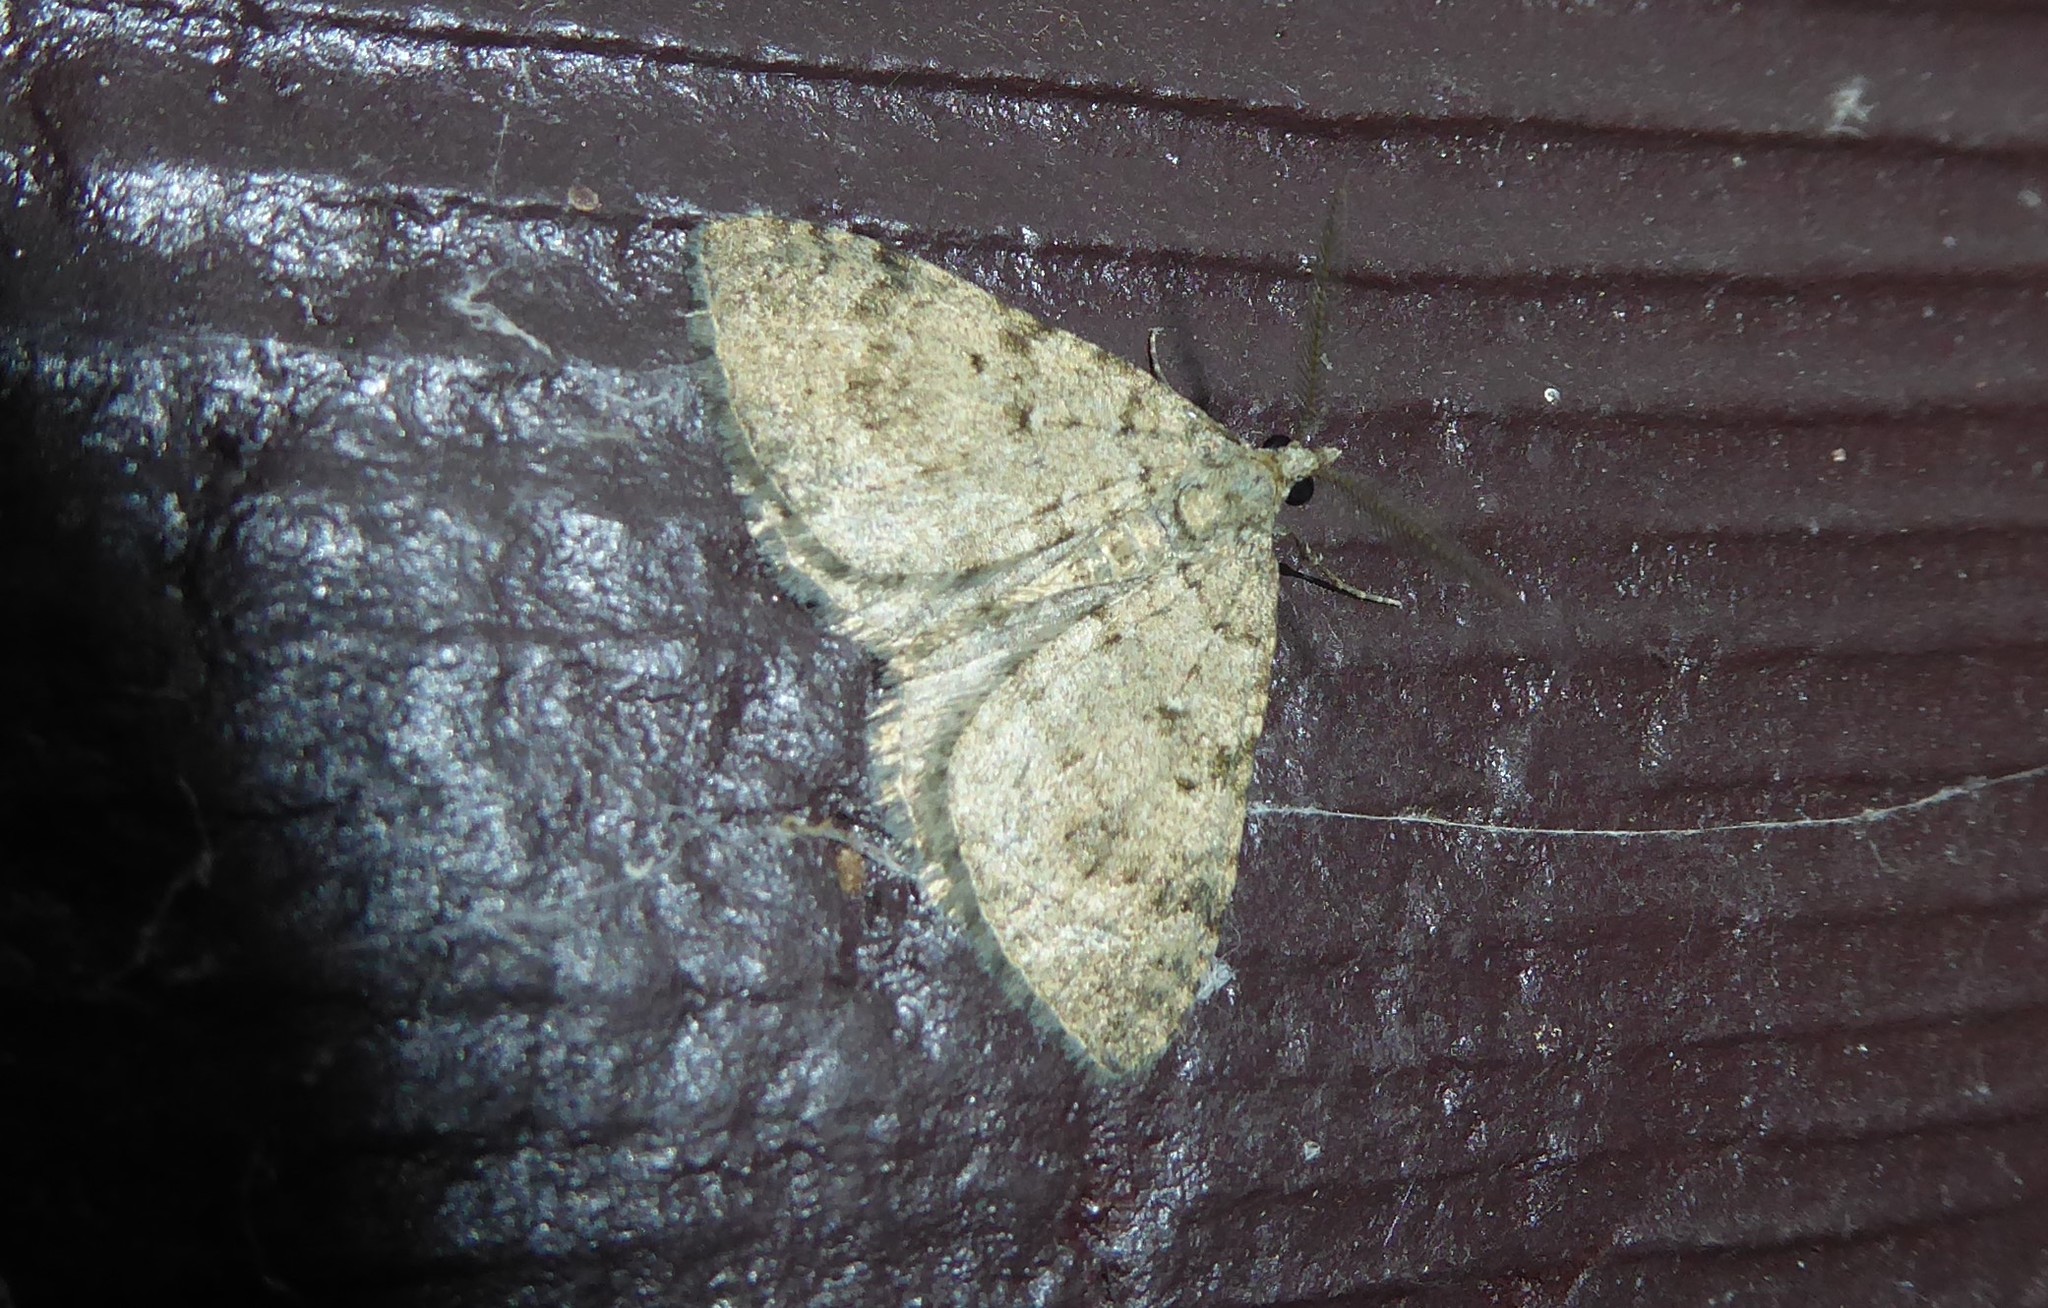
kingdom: Animalia
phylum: Arthropoda
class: Insecta
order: Lepidoptera
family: Geometridae
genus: Helastia
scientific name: Helastia cinerearia
